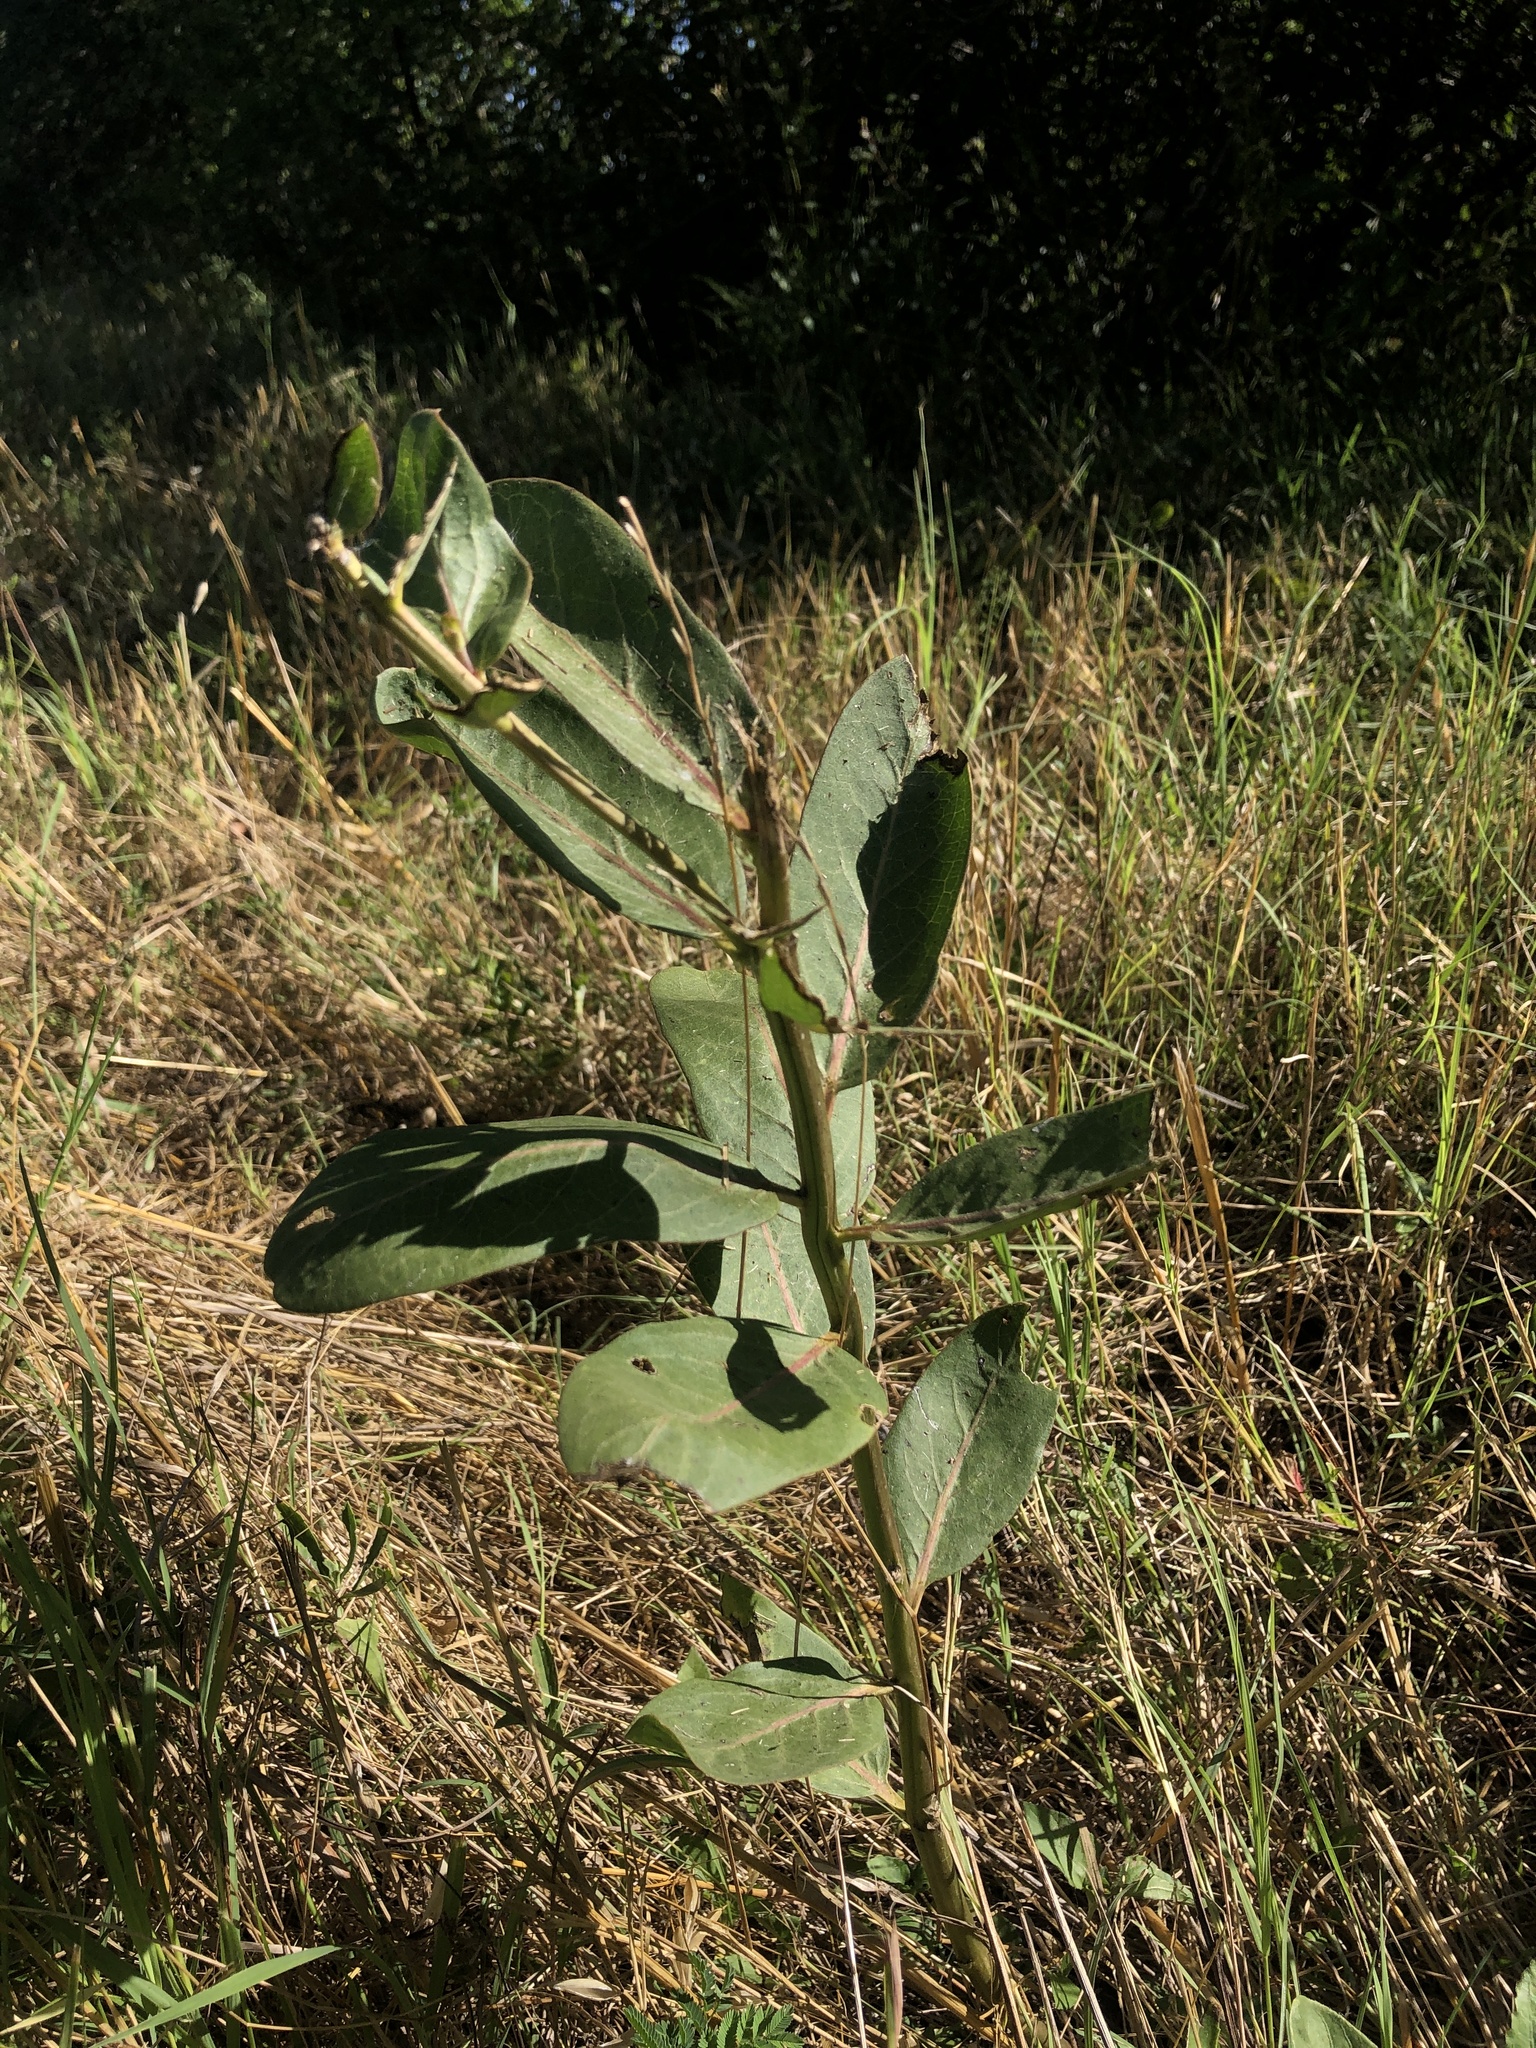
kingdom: Plantae
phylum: Tracheophyta
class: Magnoliopsida
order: Gentianales
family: Apocynaceae
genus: Asclepias
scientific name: Asclepias viridis
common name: Antelope-horns
